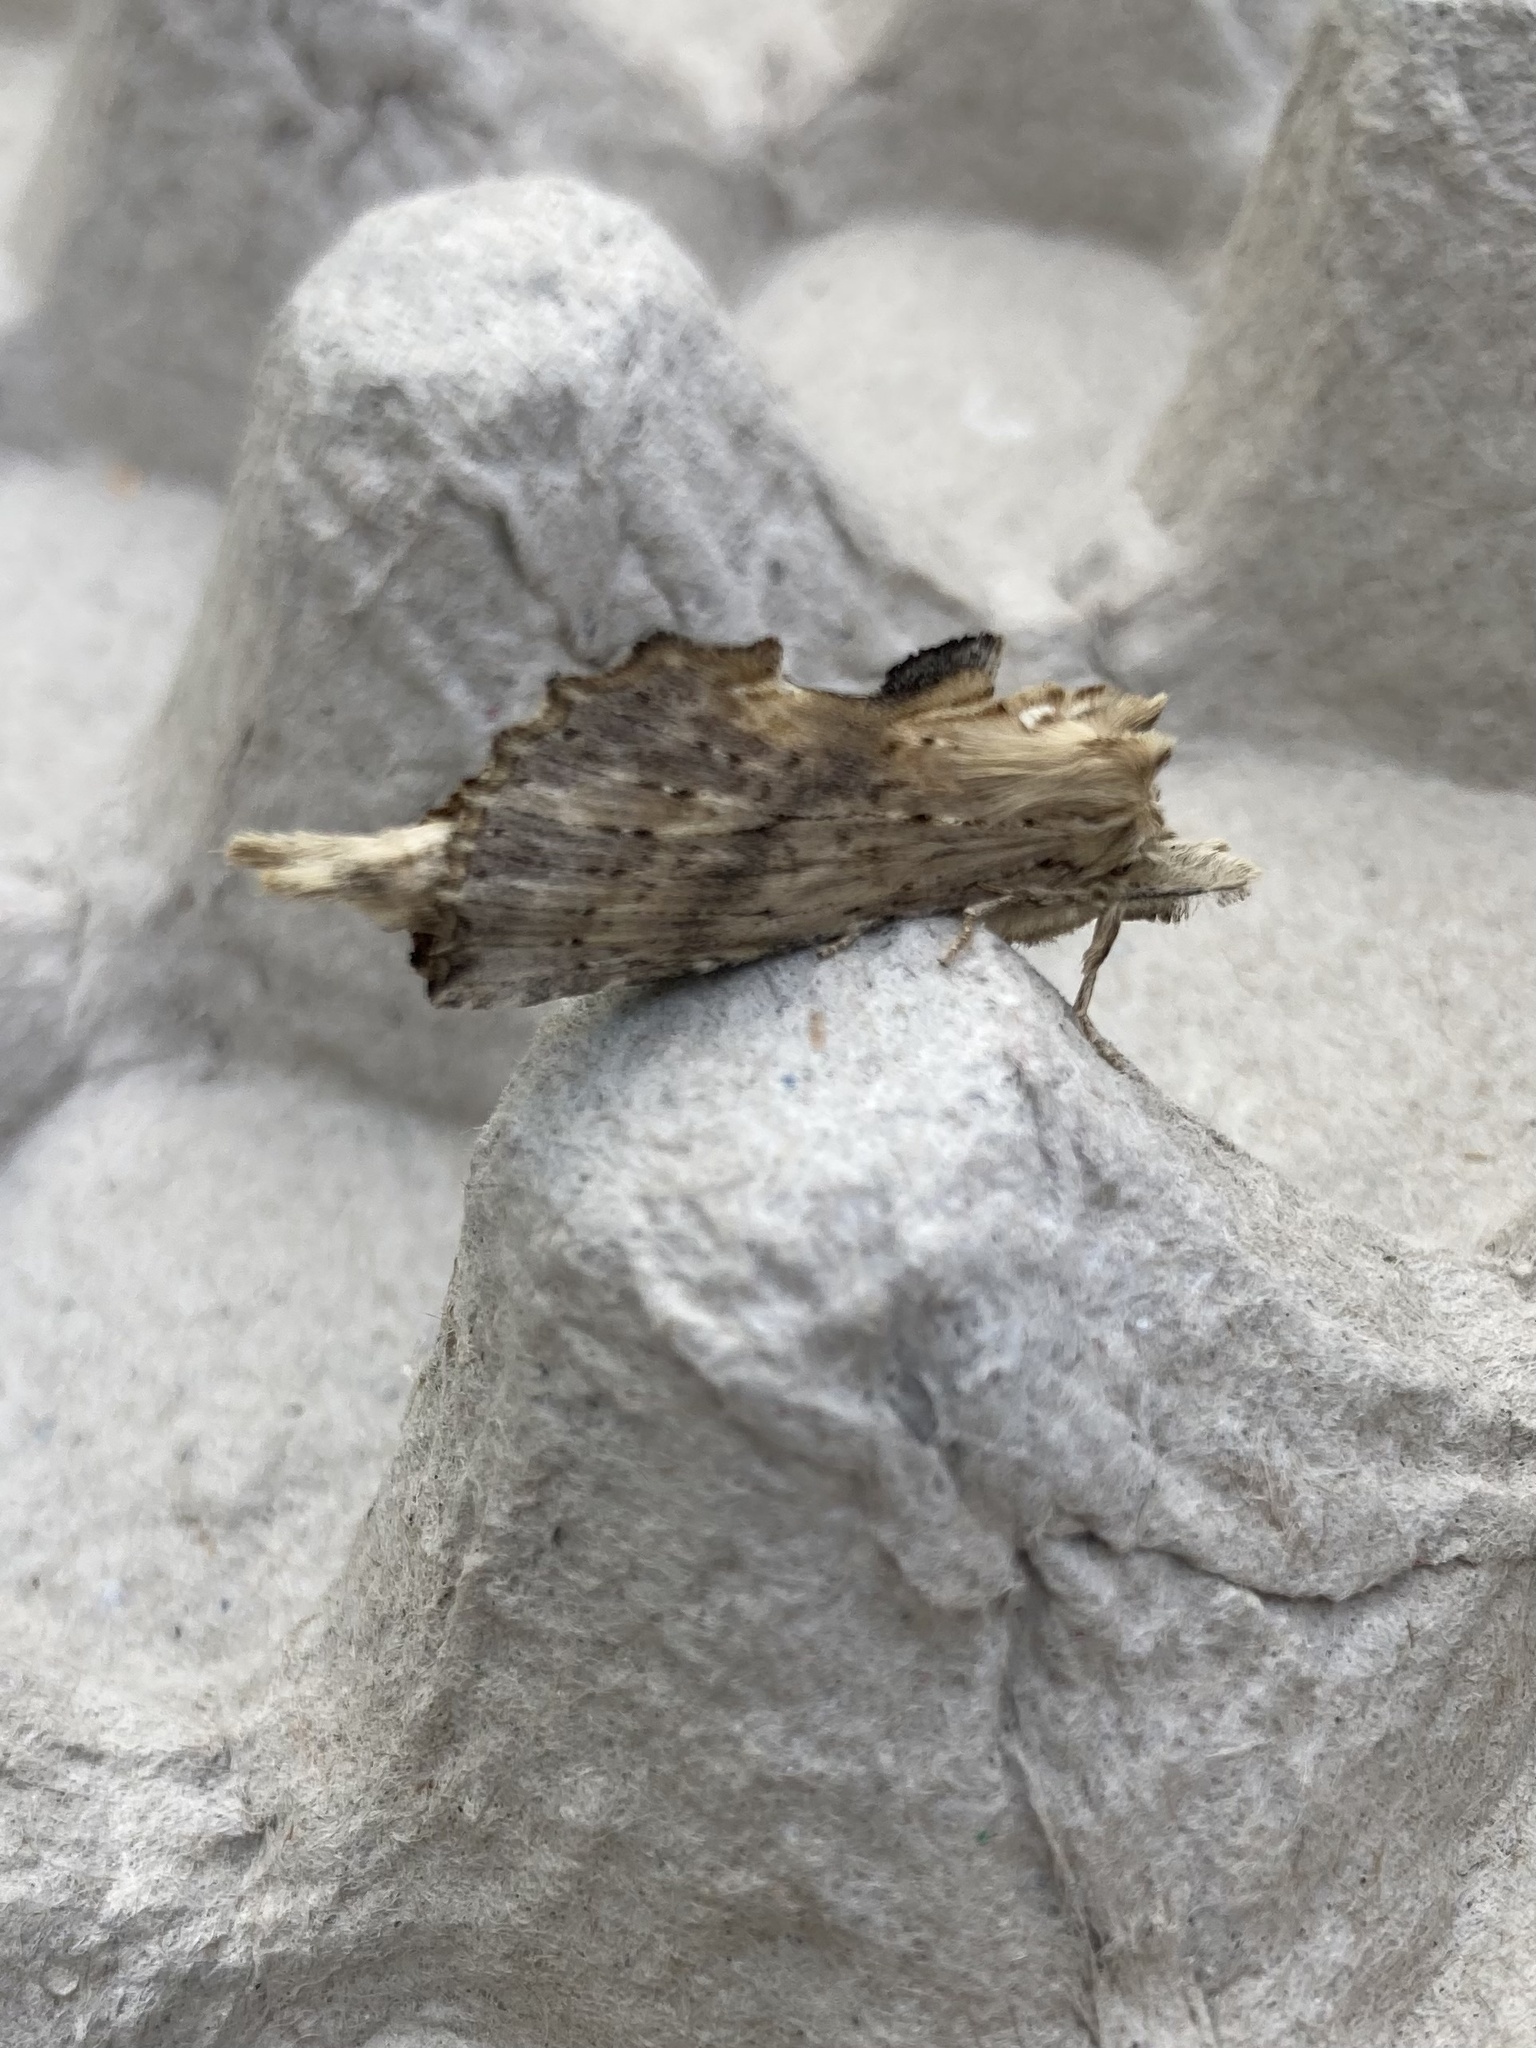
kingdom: Animalia
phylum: Arthropoda
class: Insecta
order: Lepidoptera
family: Notodontidae
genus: Pterostoma
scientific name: Pterostoma palpina
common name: Pale prominent
